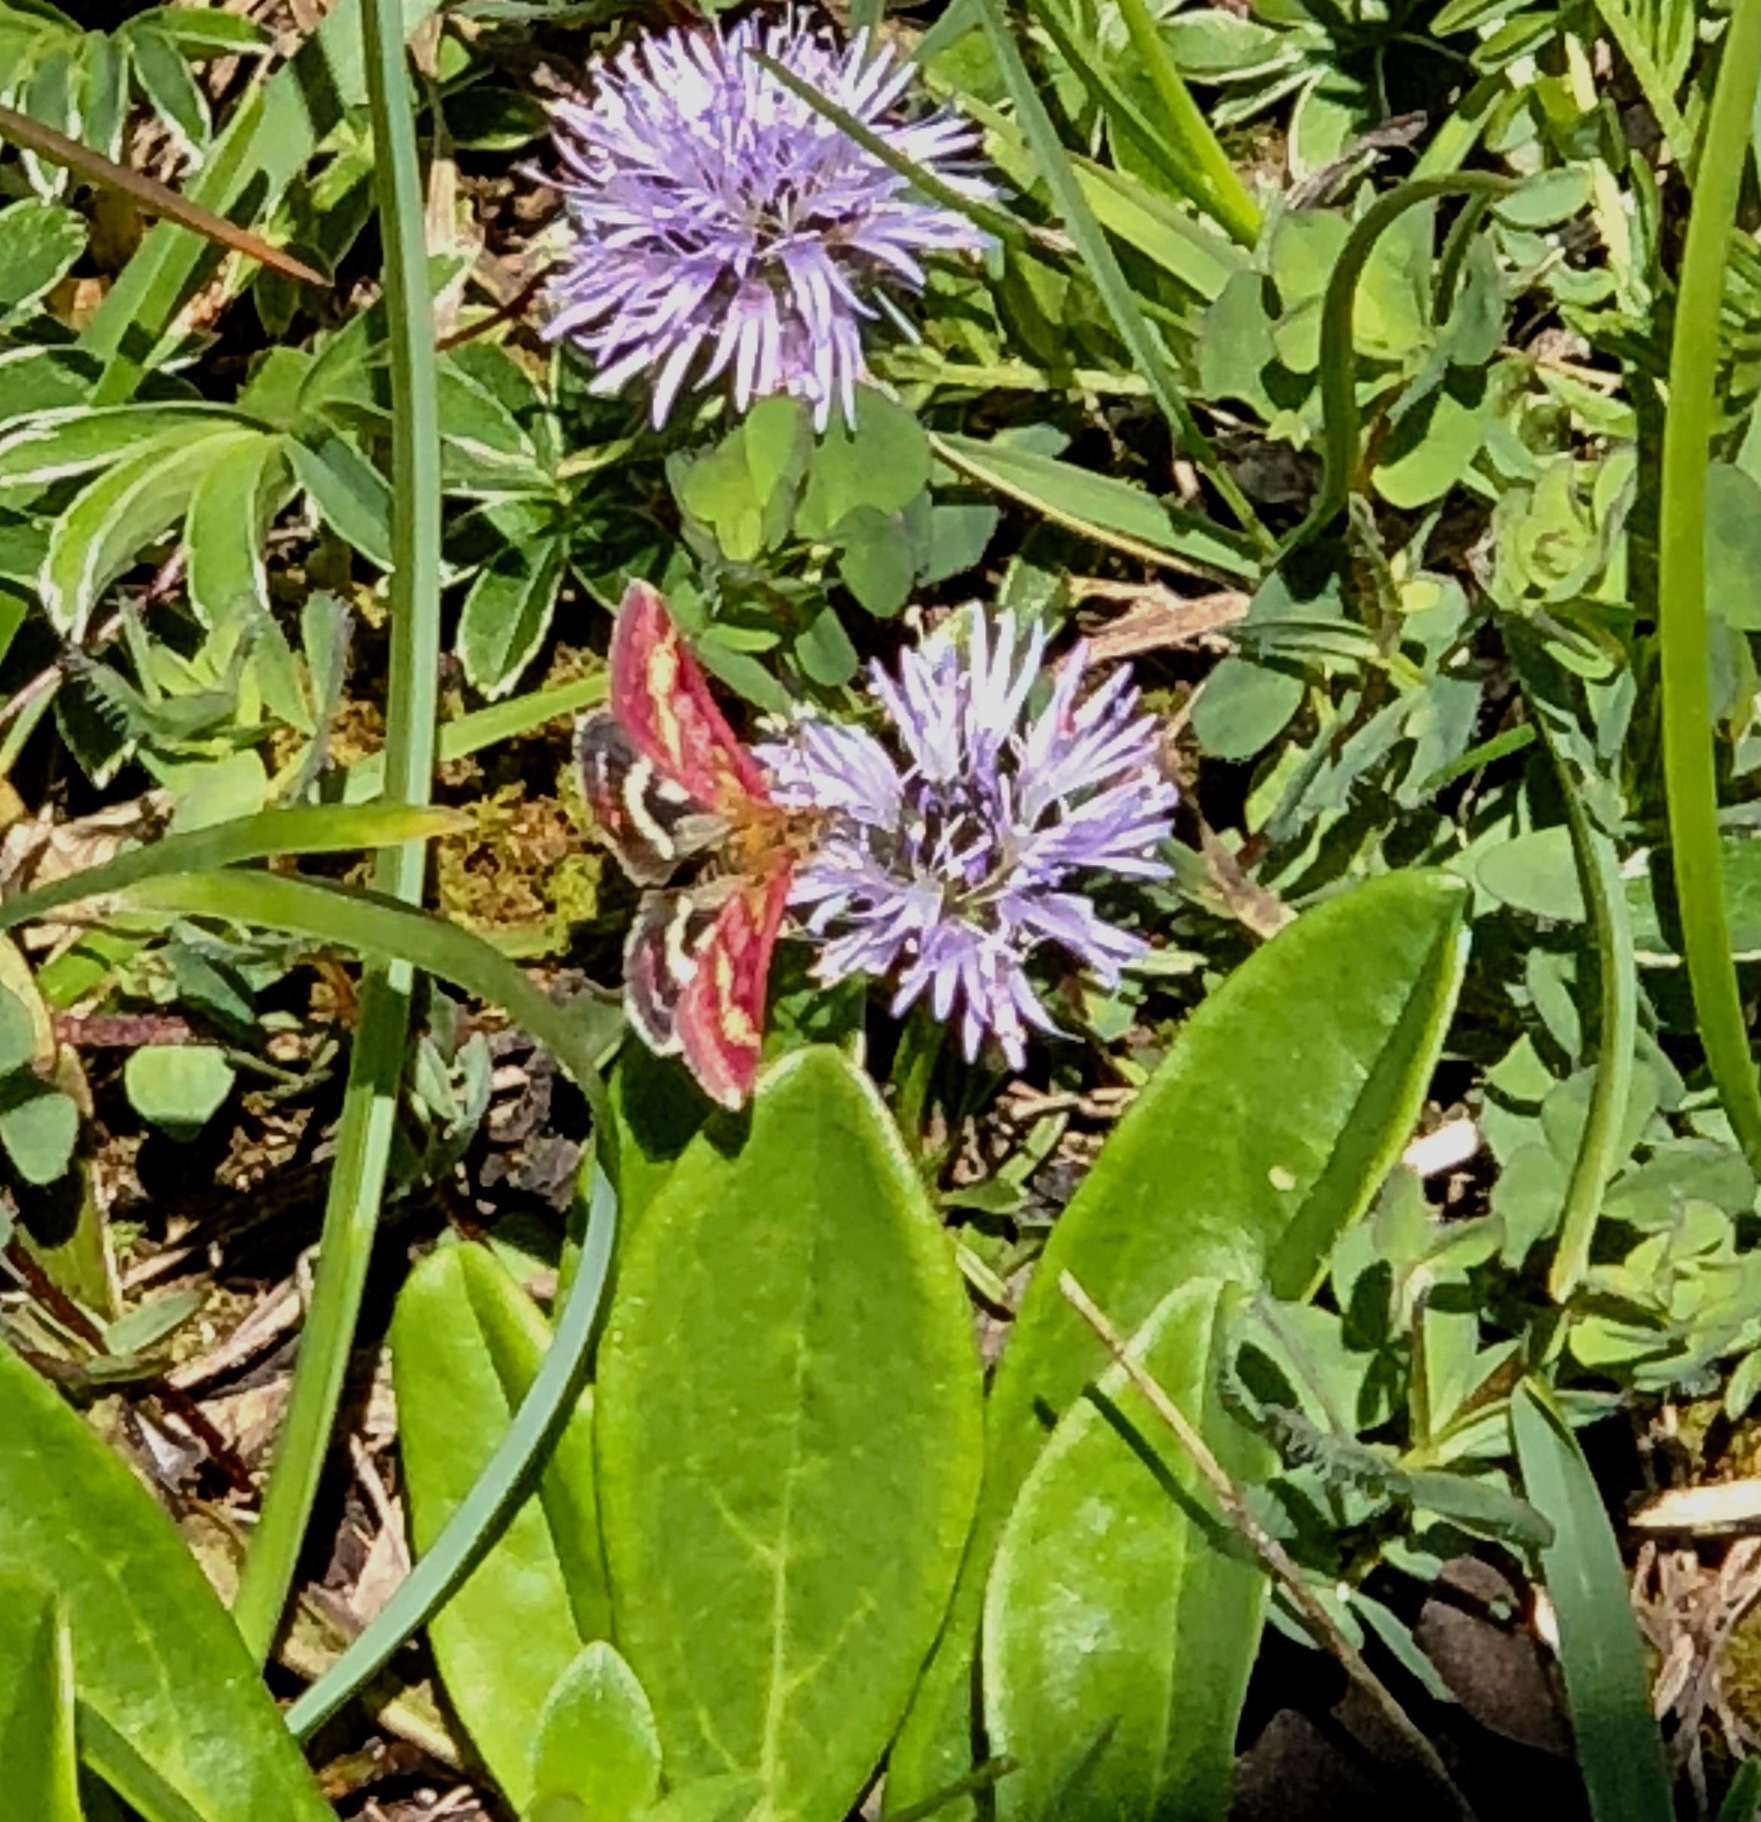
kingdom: Animalia
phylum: Arthropoda
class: Insecta
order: Lepidoptera
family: Crambidae
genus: Pyrausta
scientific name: Pyrausta ostrinalis
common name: Scarce purple & gold
